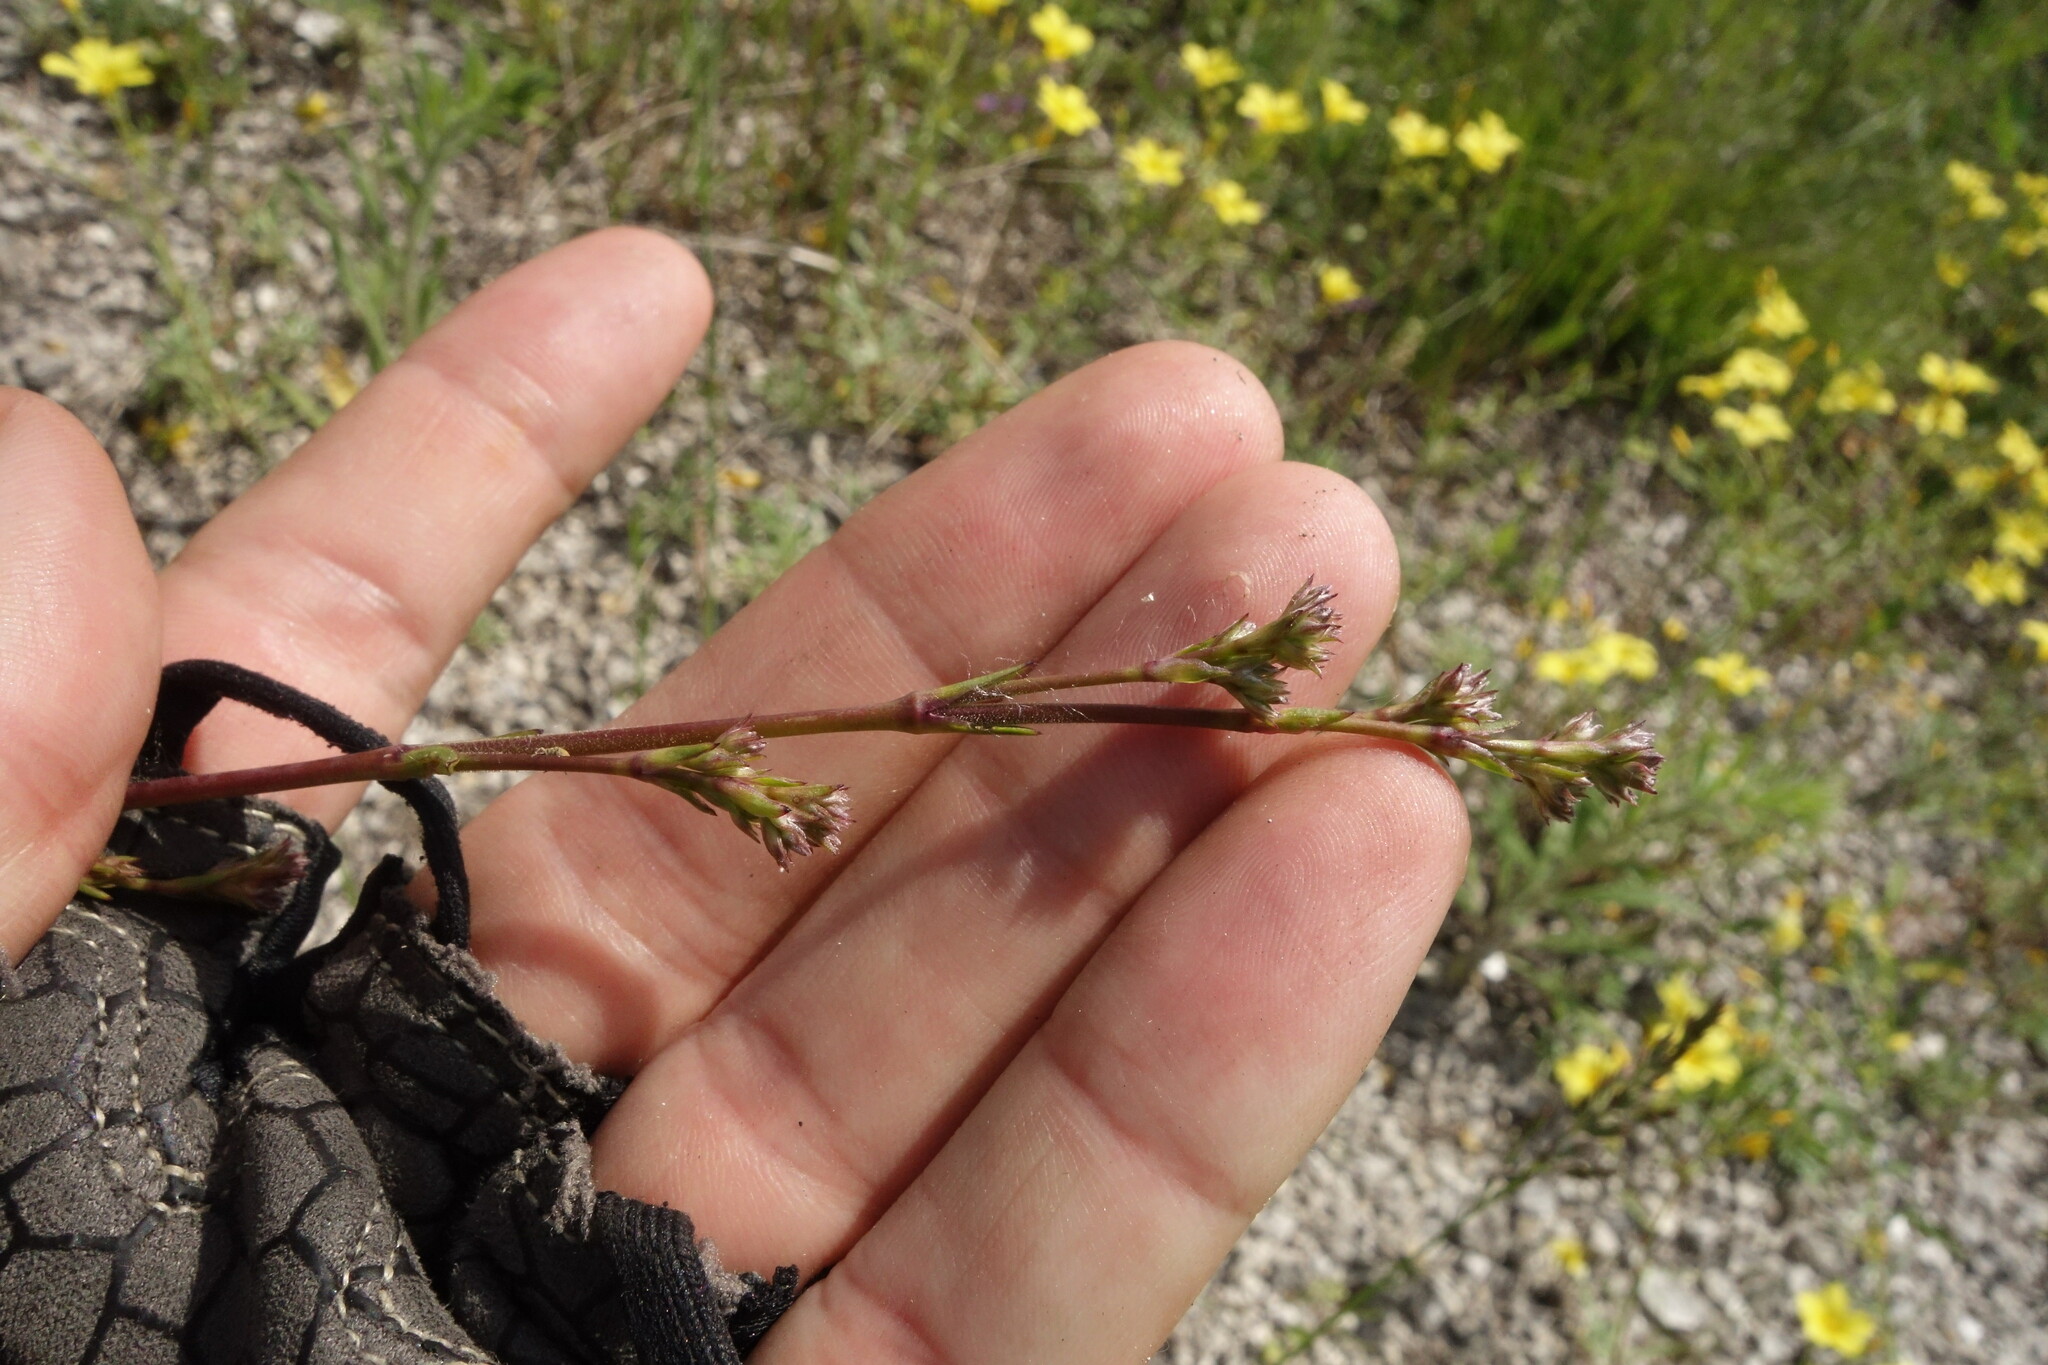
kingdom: Plantae
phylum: Tracheophyta
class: Magnoliopsida
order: Caryophyllales
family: Caryophyllaceae
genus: Gypsophila
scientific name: Gypsophila altissima
